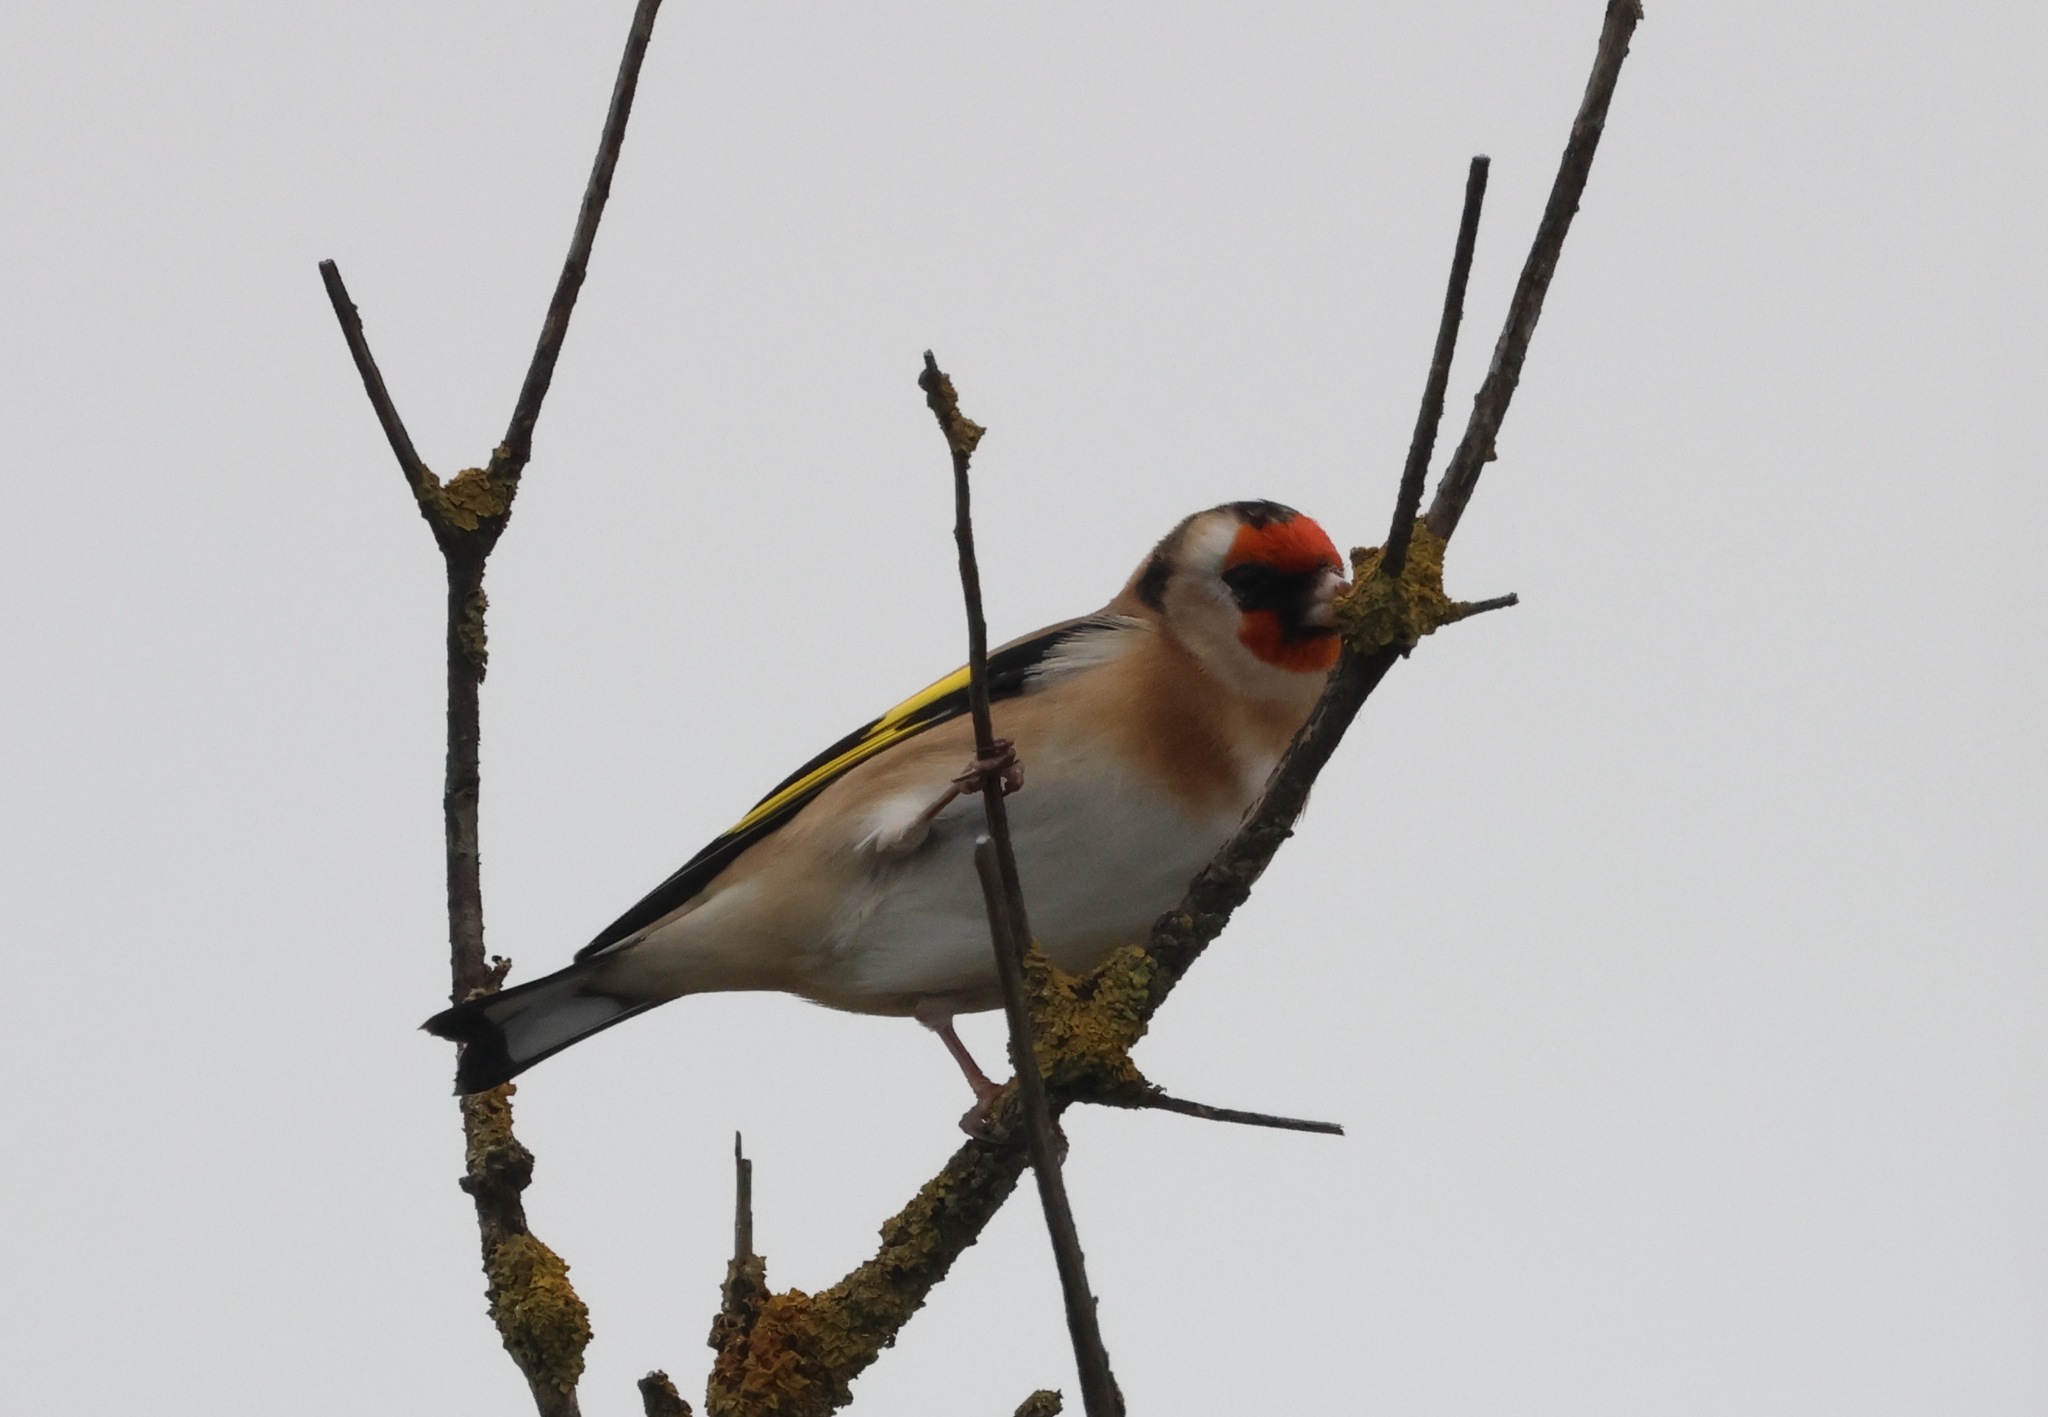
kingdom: Animalia
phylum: Chordata
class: Aves
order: Passeriformes
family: Fringillidae
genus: Carduelis
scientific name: Carduelis carduelis
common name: European goldfinch
